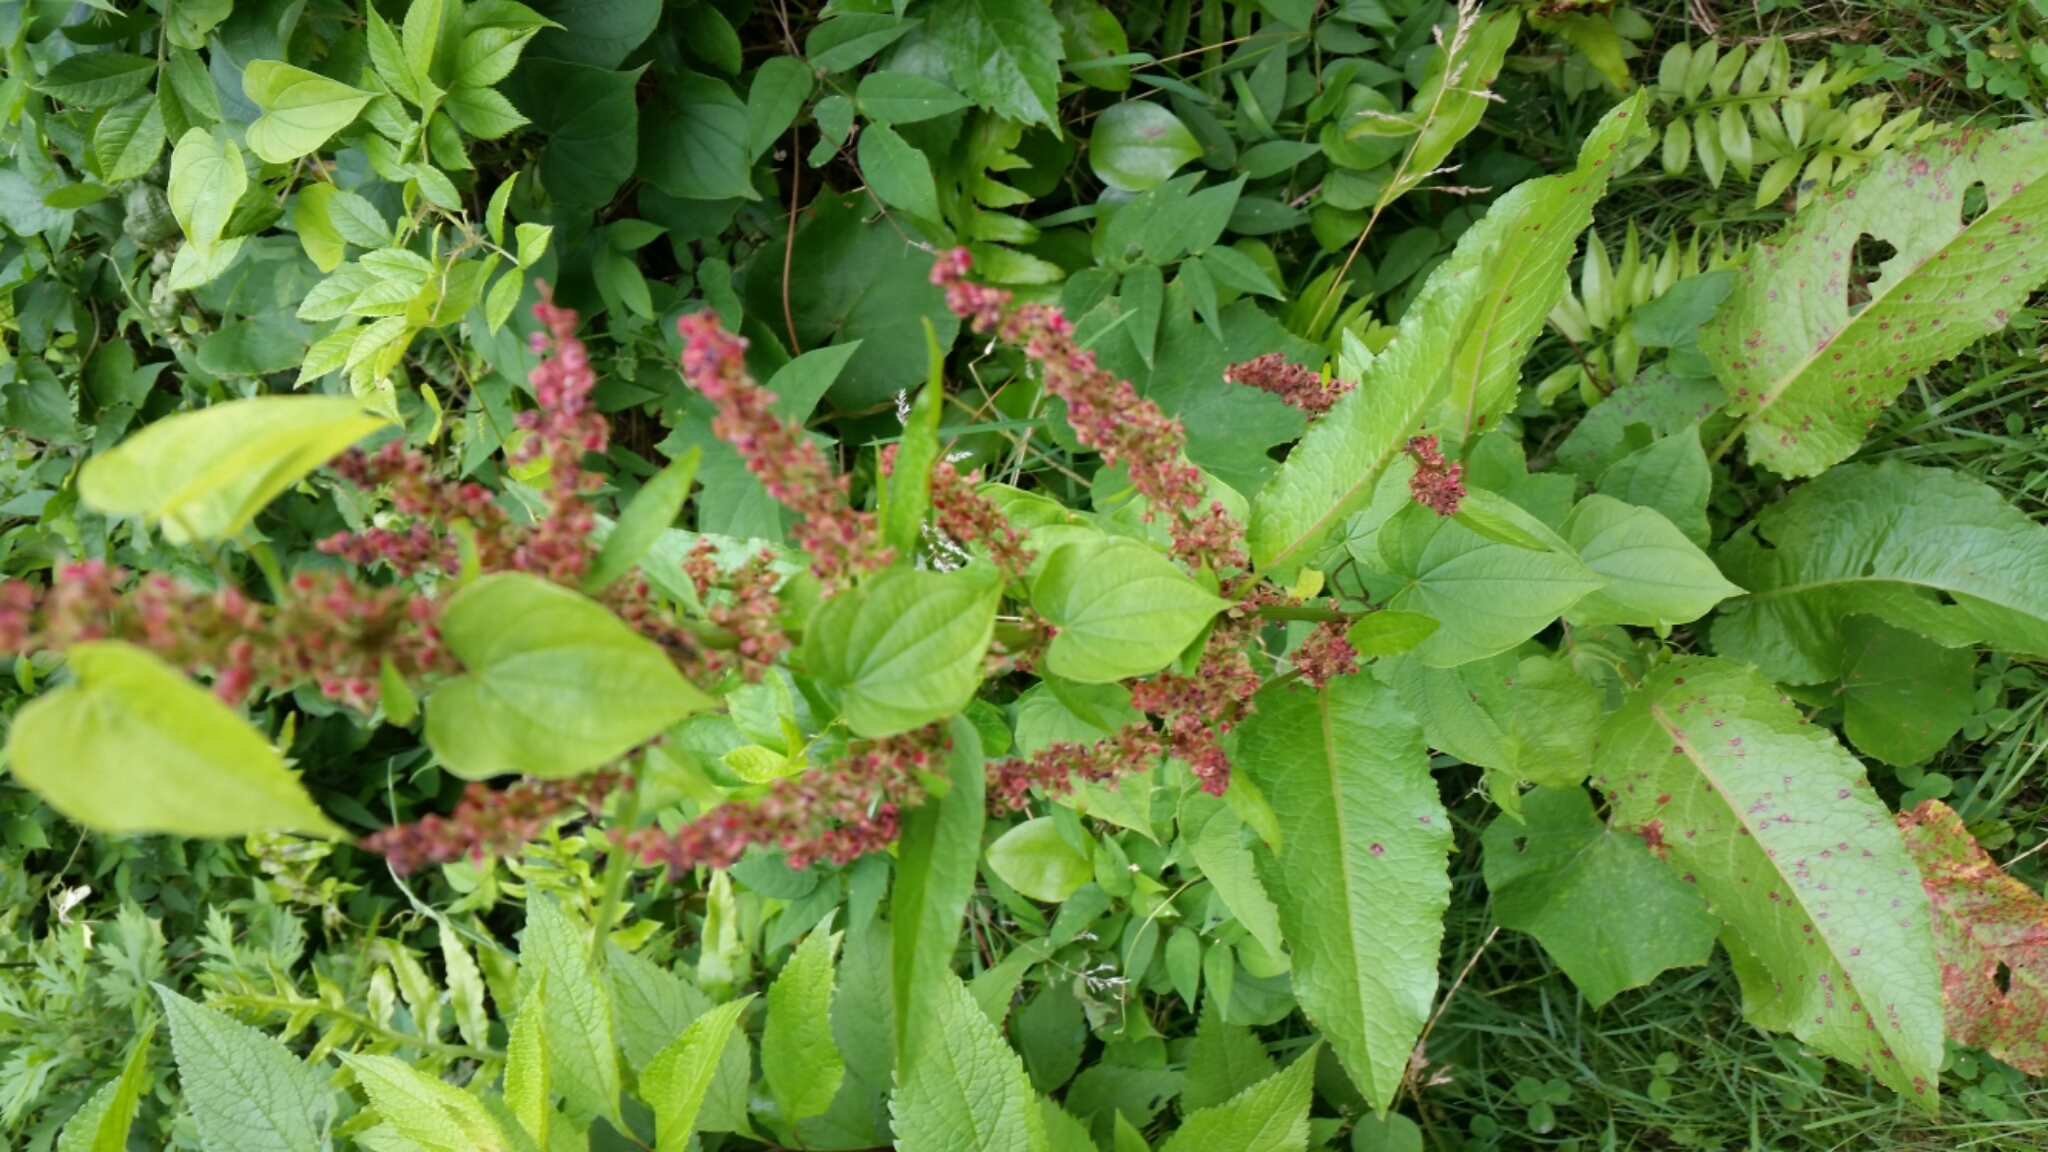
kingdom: Plantae
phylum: Tracheophyta
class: Magnoliopsida
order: Caryophyllales
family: Polygonaceae
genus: Rumex
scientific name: Rumex obtusifolius
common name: Bitter dock
